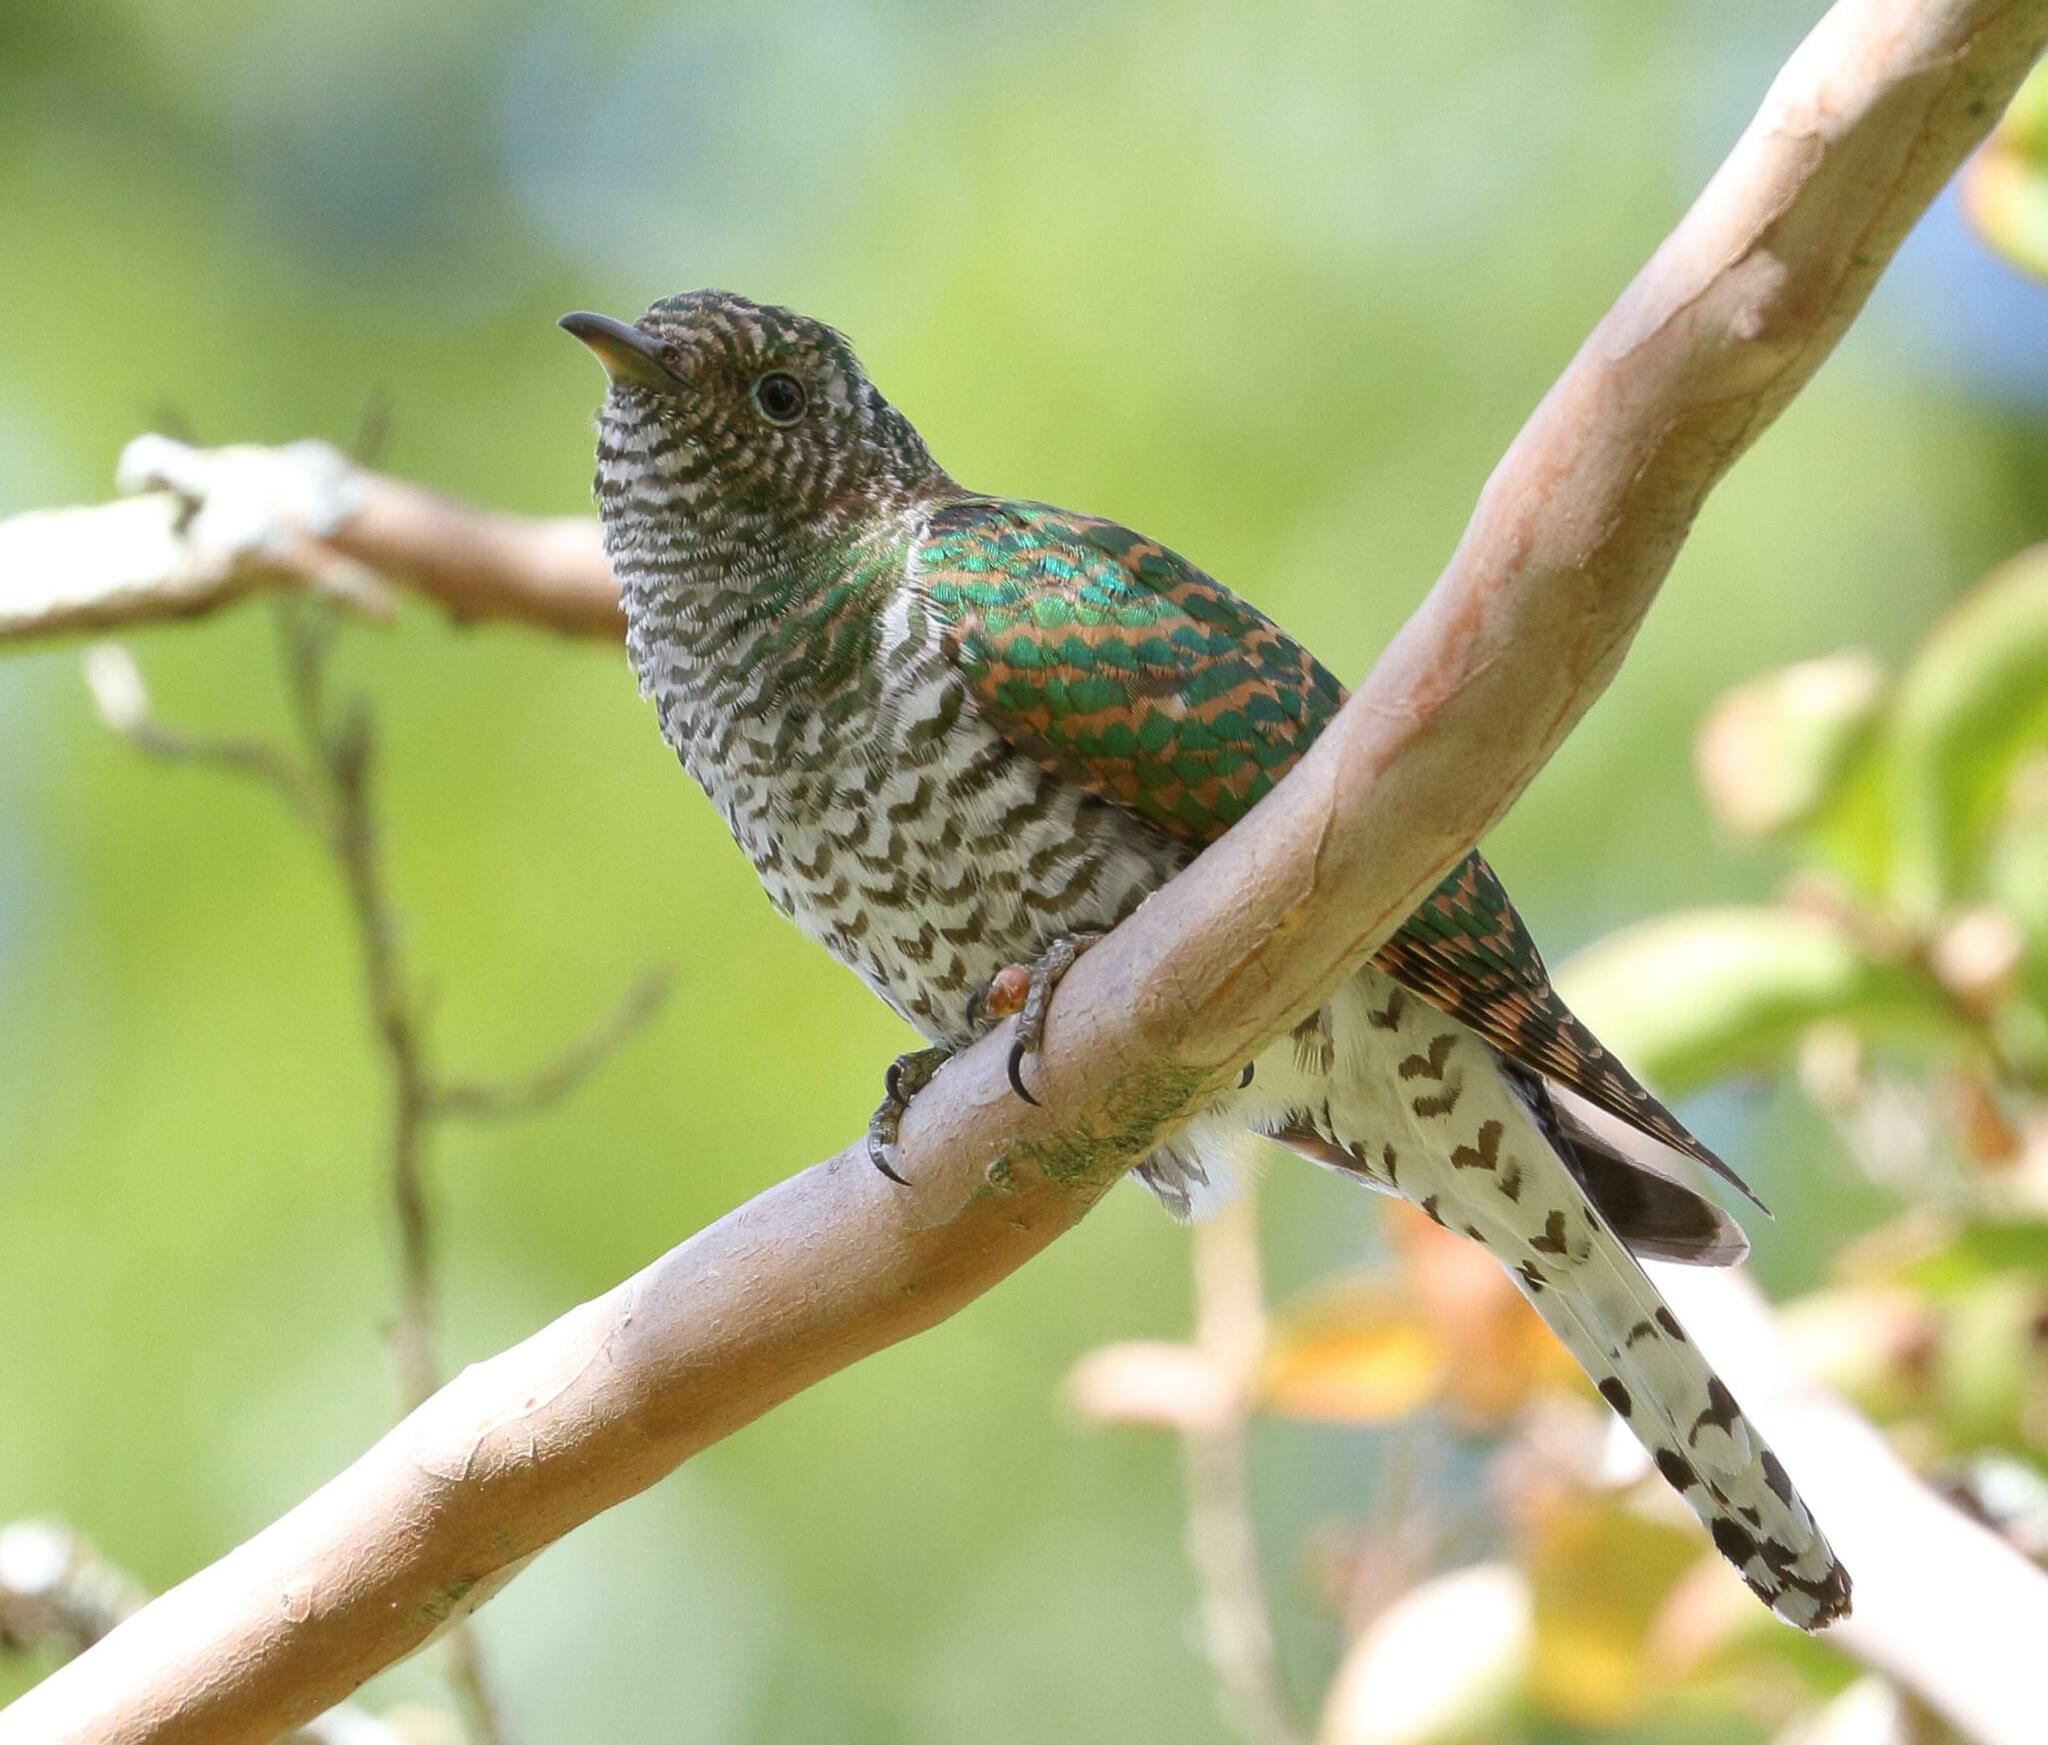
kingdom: Animalia
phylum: Chordata
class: Aves
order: Cuculiformes
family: Cuculidae
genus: Chrysococcyx
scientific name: Chrysococcyx cupreus
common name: African emerald cuckoo
